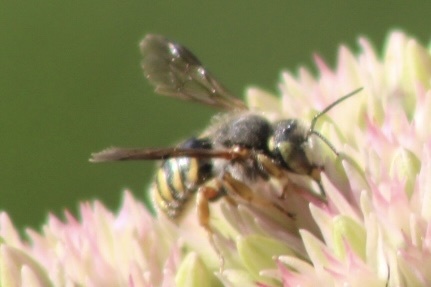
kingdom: Animalia
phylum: Arthropoda
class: Insecta
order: Hymenoptera
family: Megachilidae
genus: Anthidium
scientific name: Anthidium oblongatum
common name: Oblong wool carder bee
